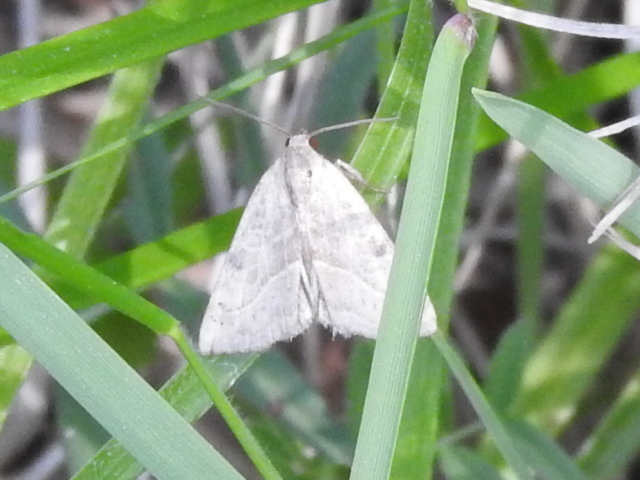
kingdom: Animalia
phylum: Arthropoda
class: Insecta
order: Lepidoptera
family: Noctuidae
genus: Galgula
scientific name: Galgula partita
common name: Wedgeling
